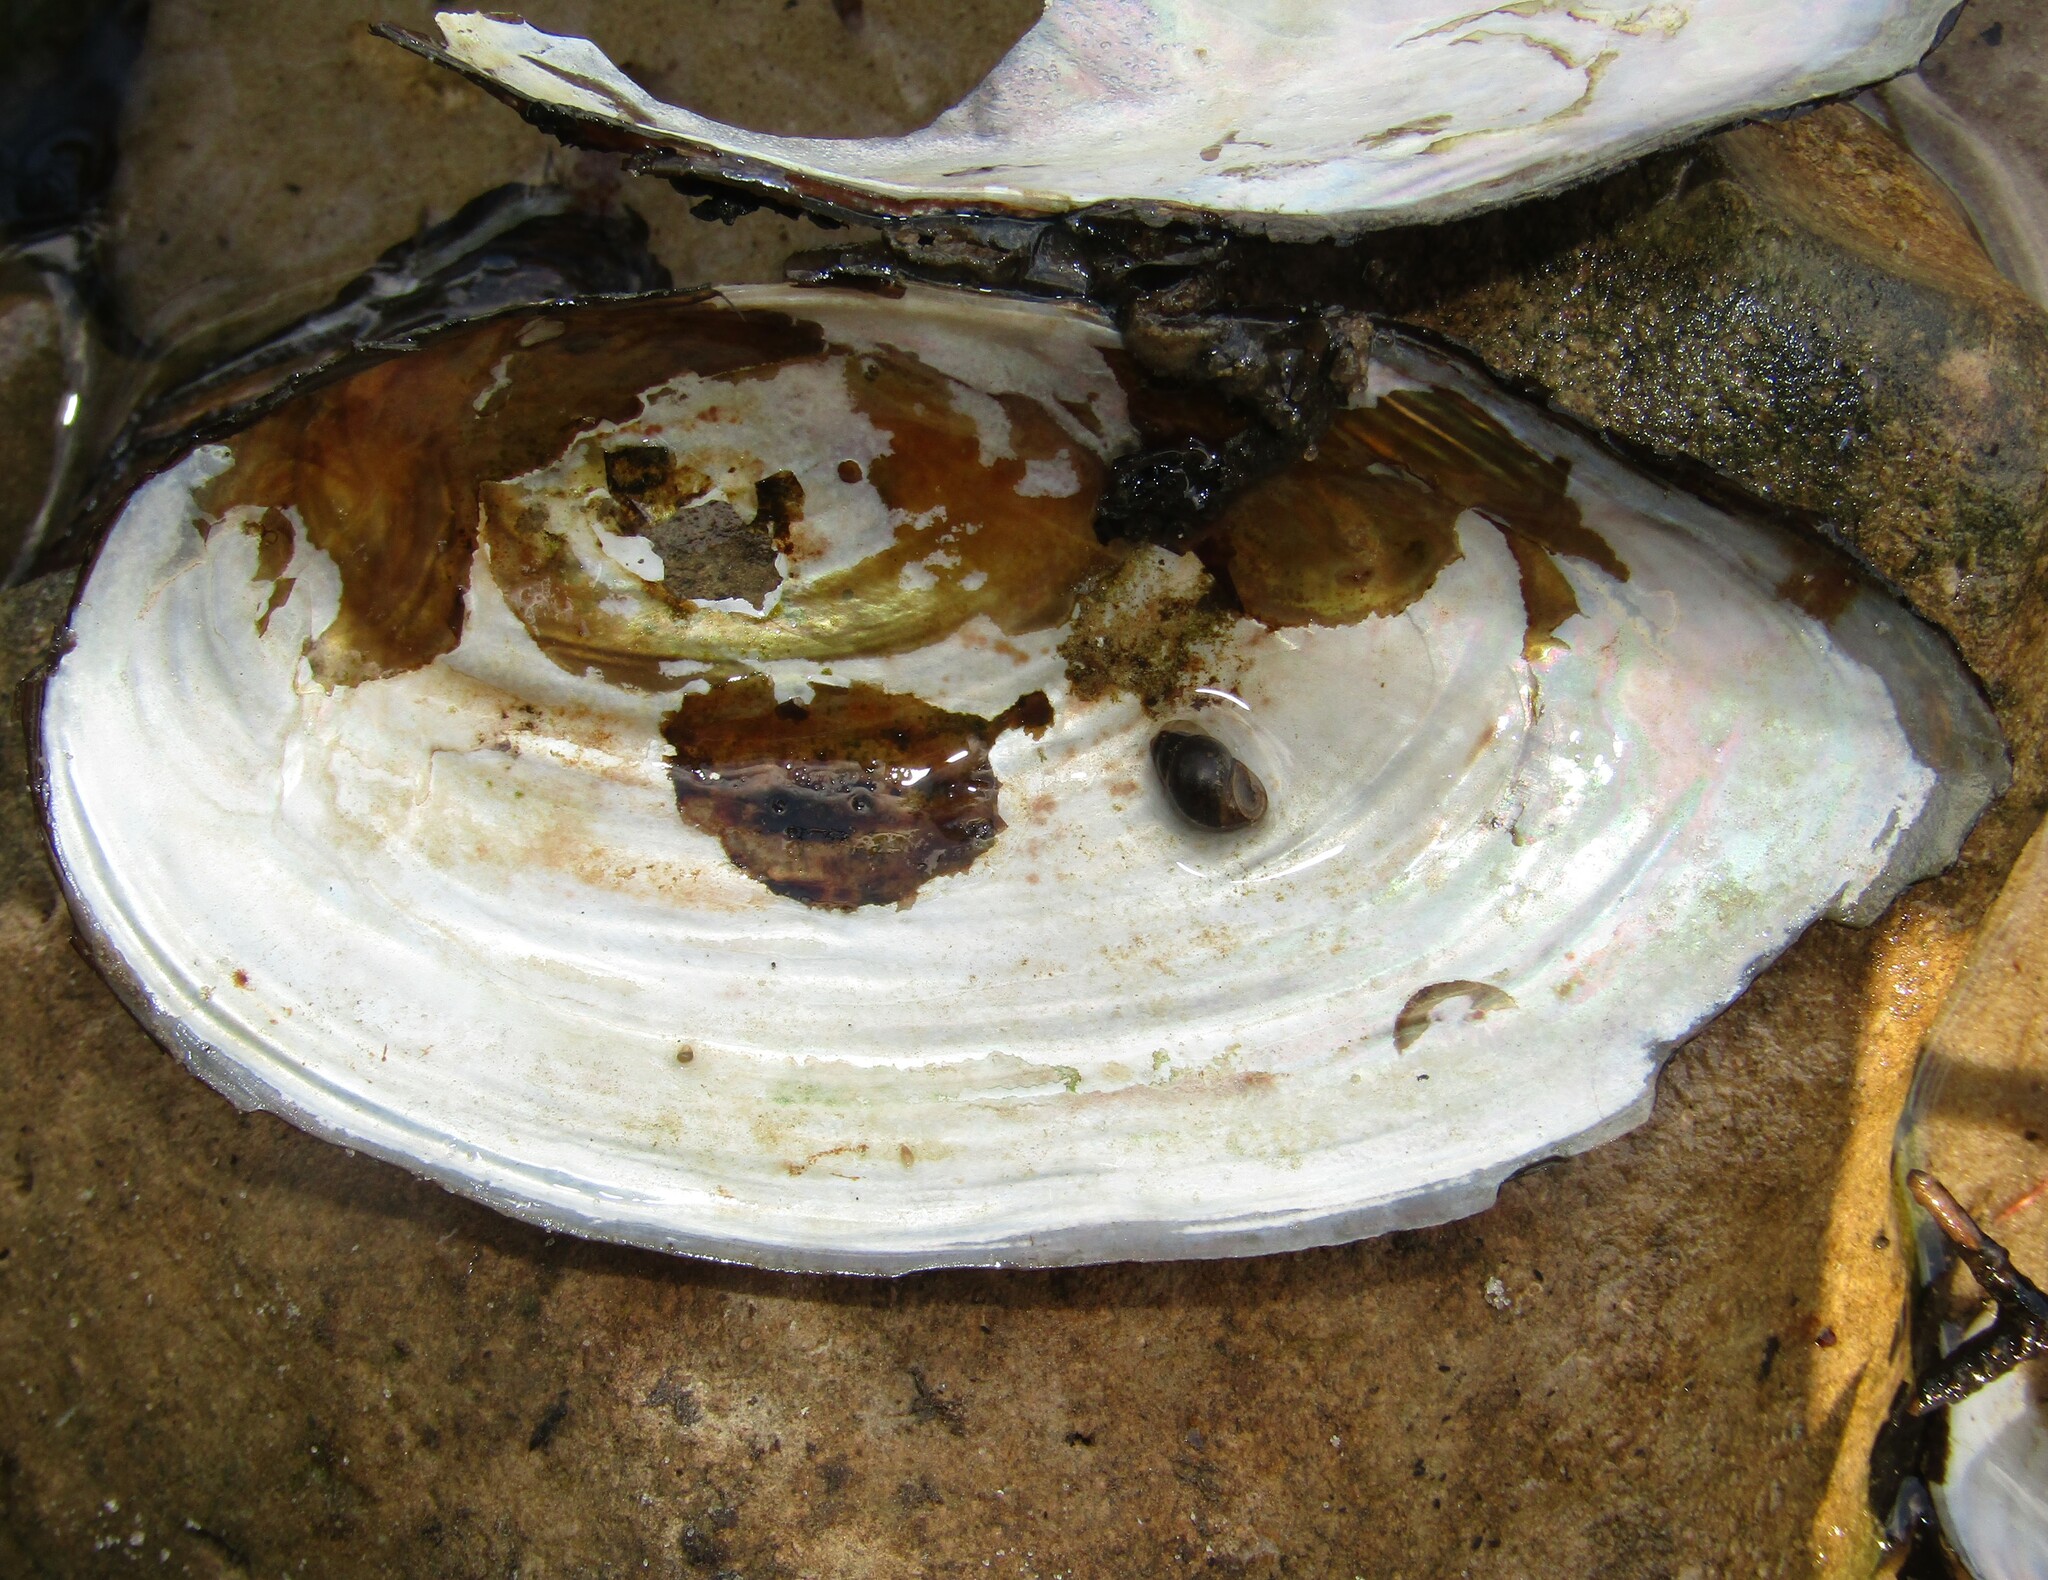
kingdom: Animalia
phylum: Mollusca
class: Bivalvia
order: Unionida
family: Unionidae
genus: Anodonta
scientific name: Anodonta cygnea
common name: Swan mussel
